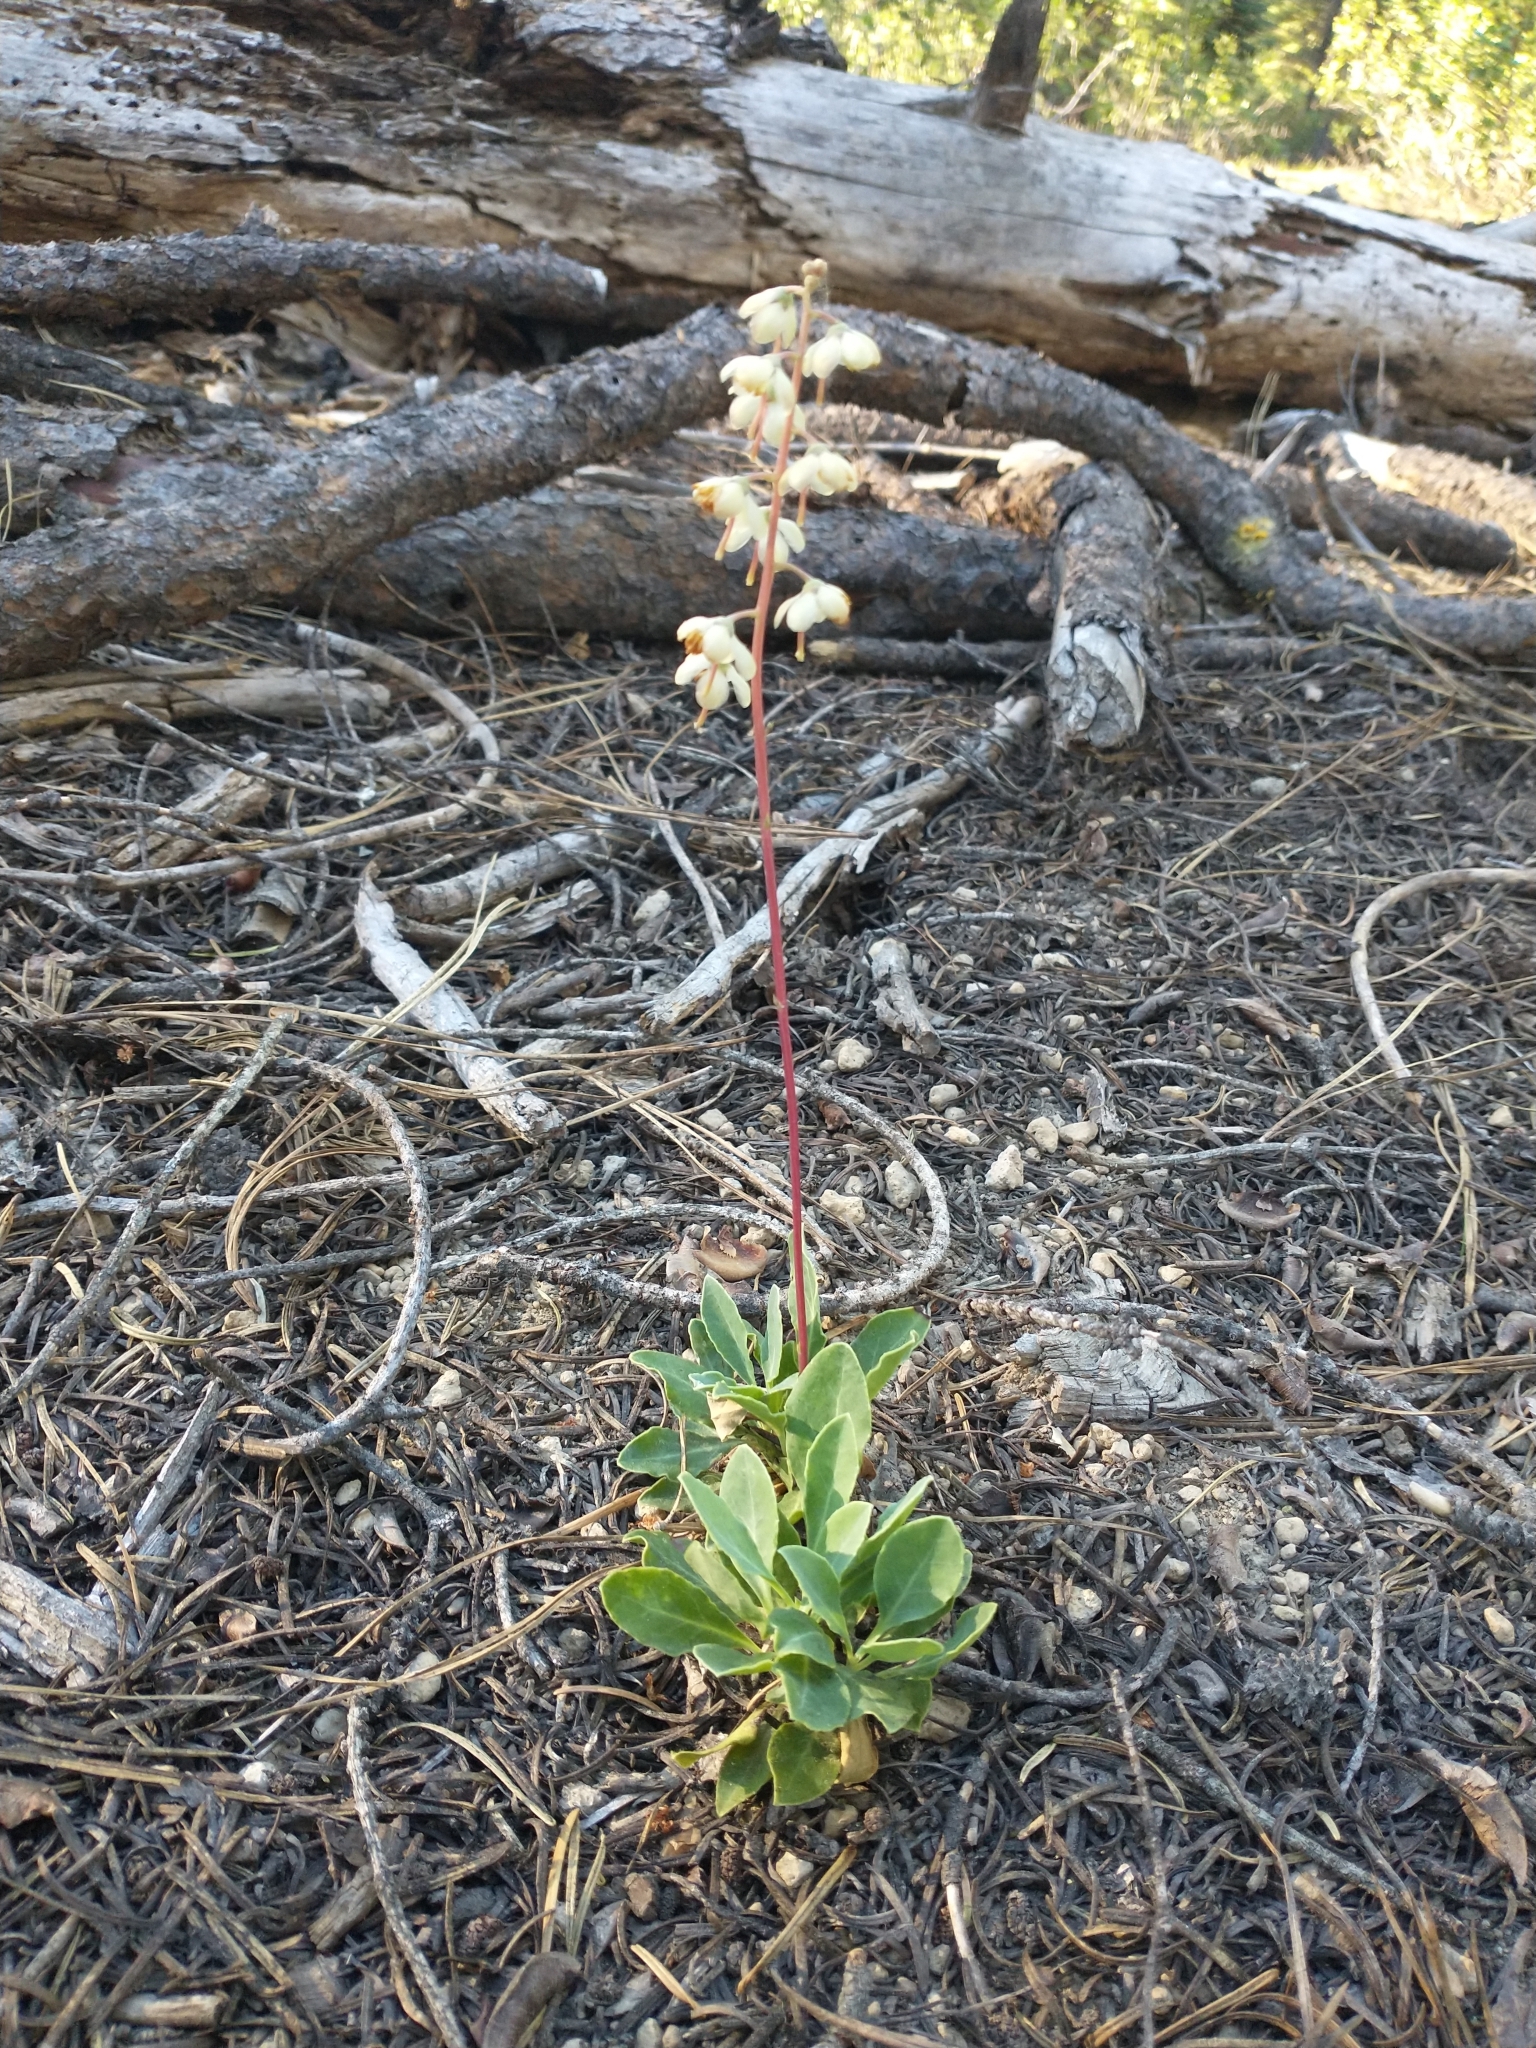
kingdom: Plantae
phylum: Tracheophyta
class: Magnoliopsida
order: Ericales
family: Ericaceae
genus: Pyrola
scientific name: Pyrola dentata
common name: Tooth-leaved wintergreen
